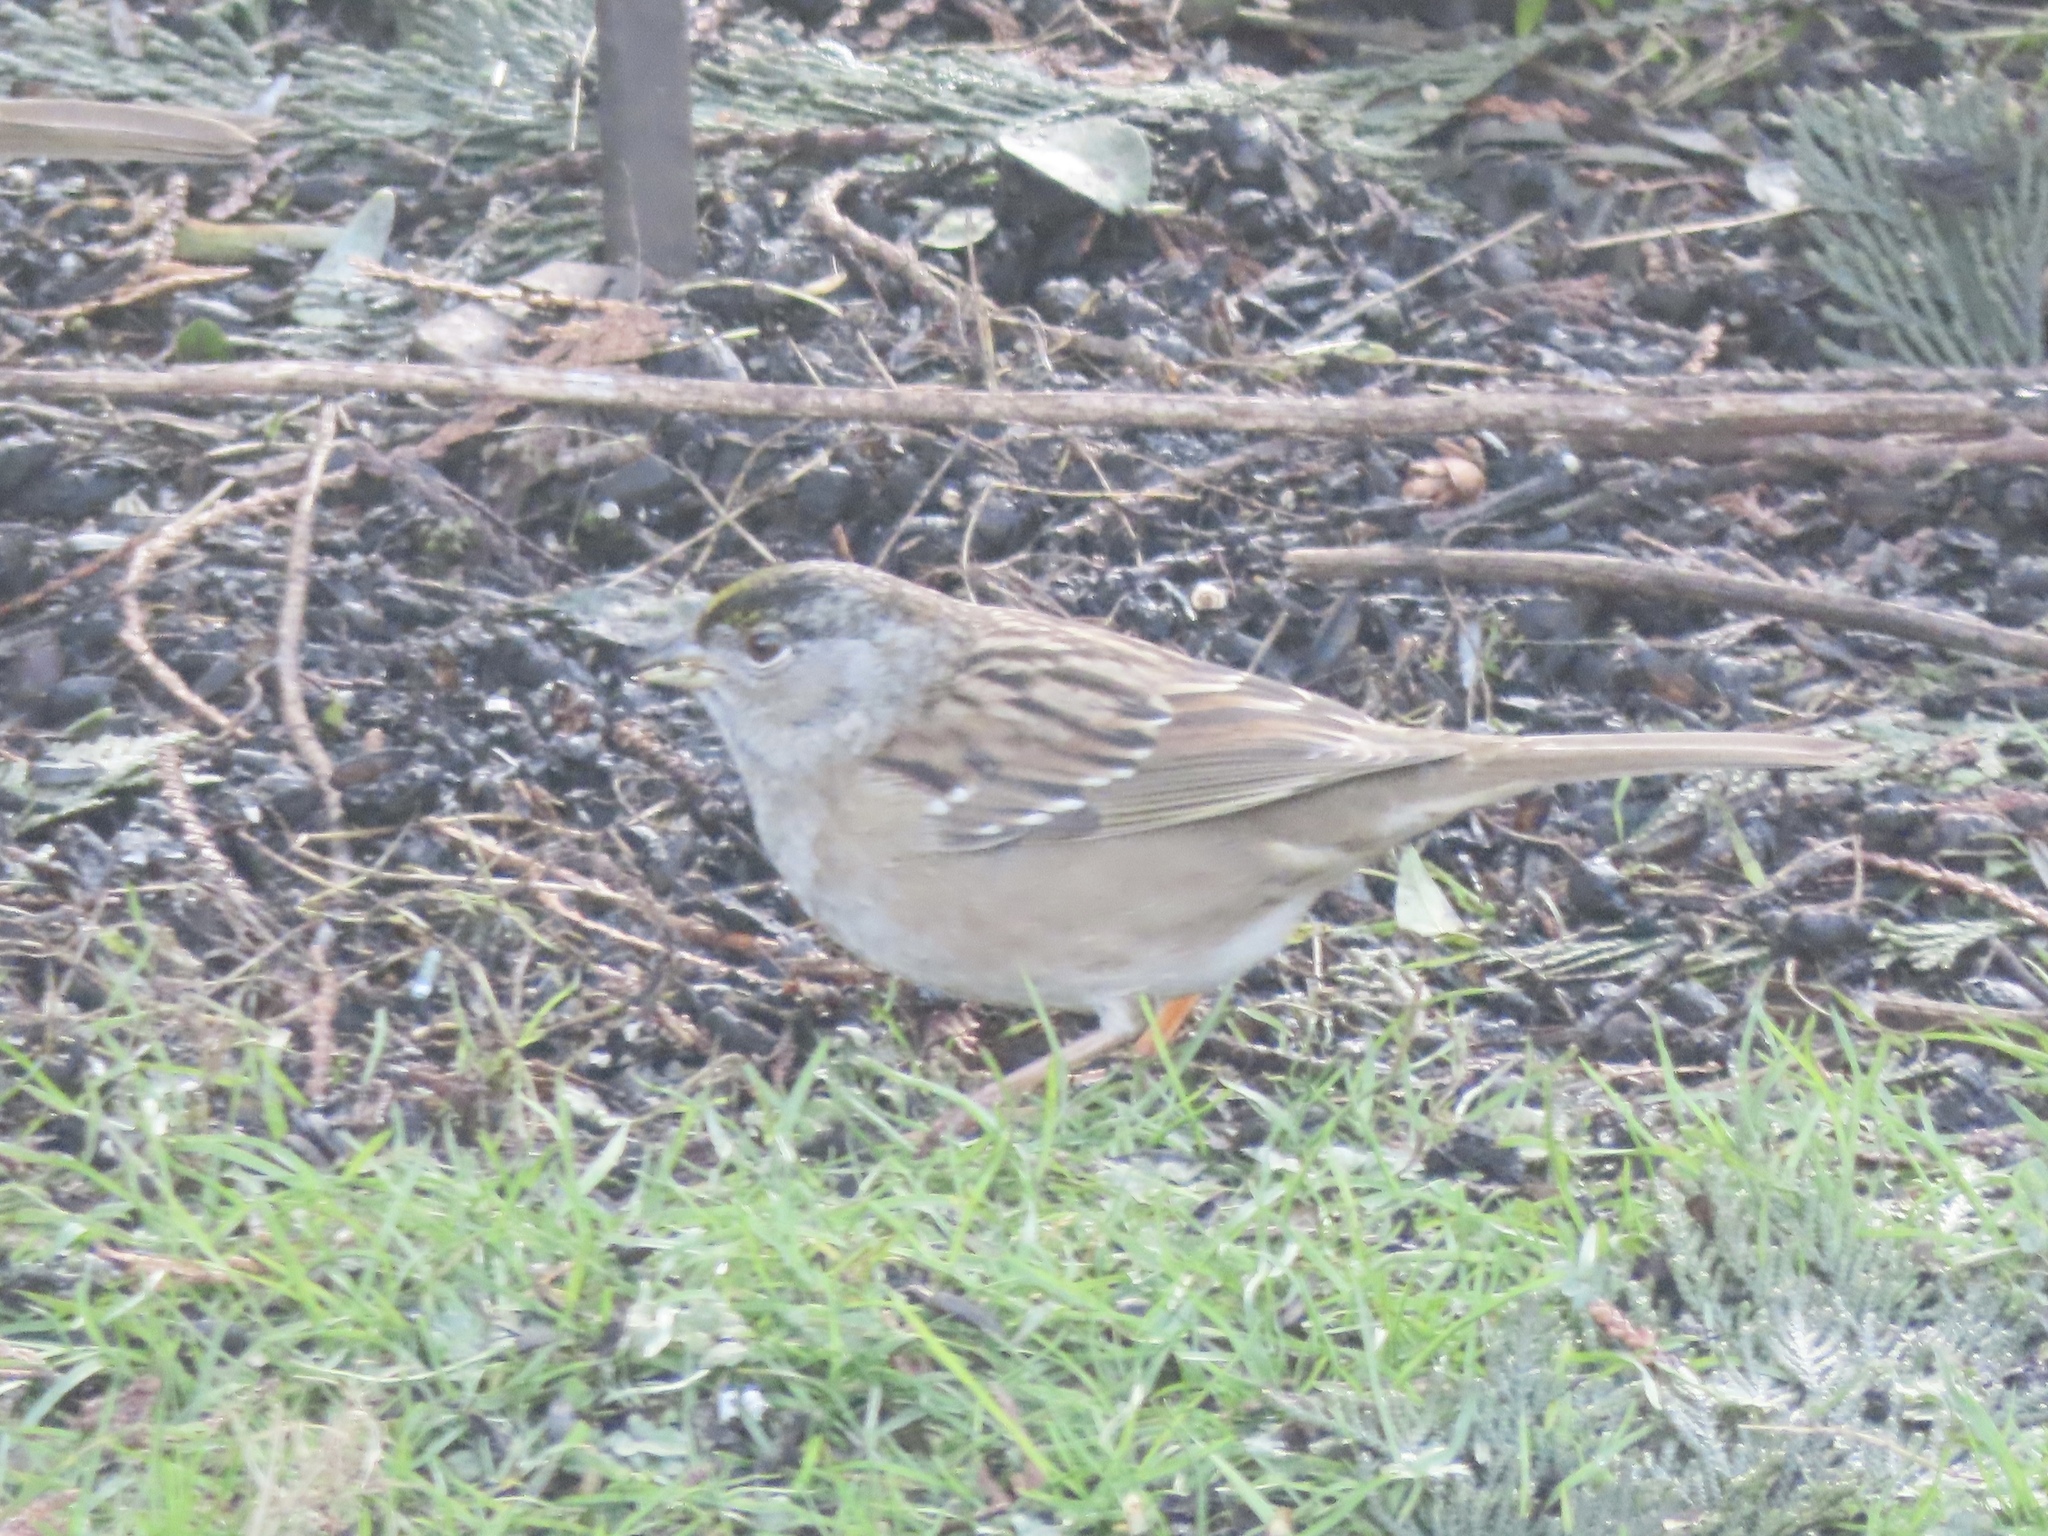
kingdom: Animalia
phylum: Chordata
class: Aves
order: Passeriformes
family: Passerellidae
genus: Zonotrichia
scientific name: Zonotrichia atricapilla
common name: Golden-crowned sparrow
